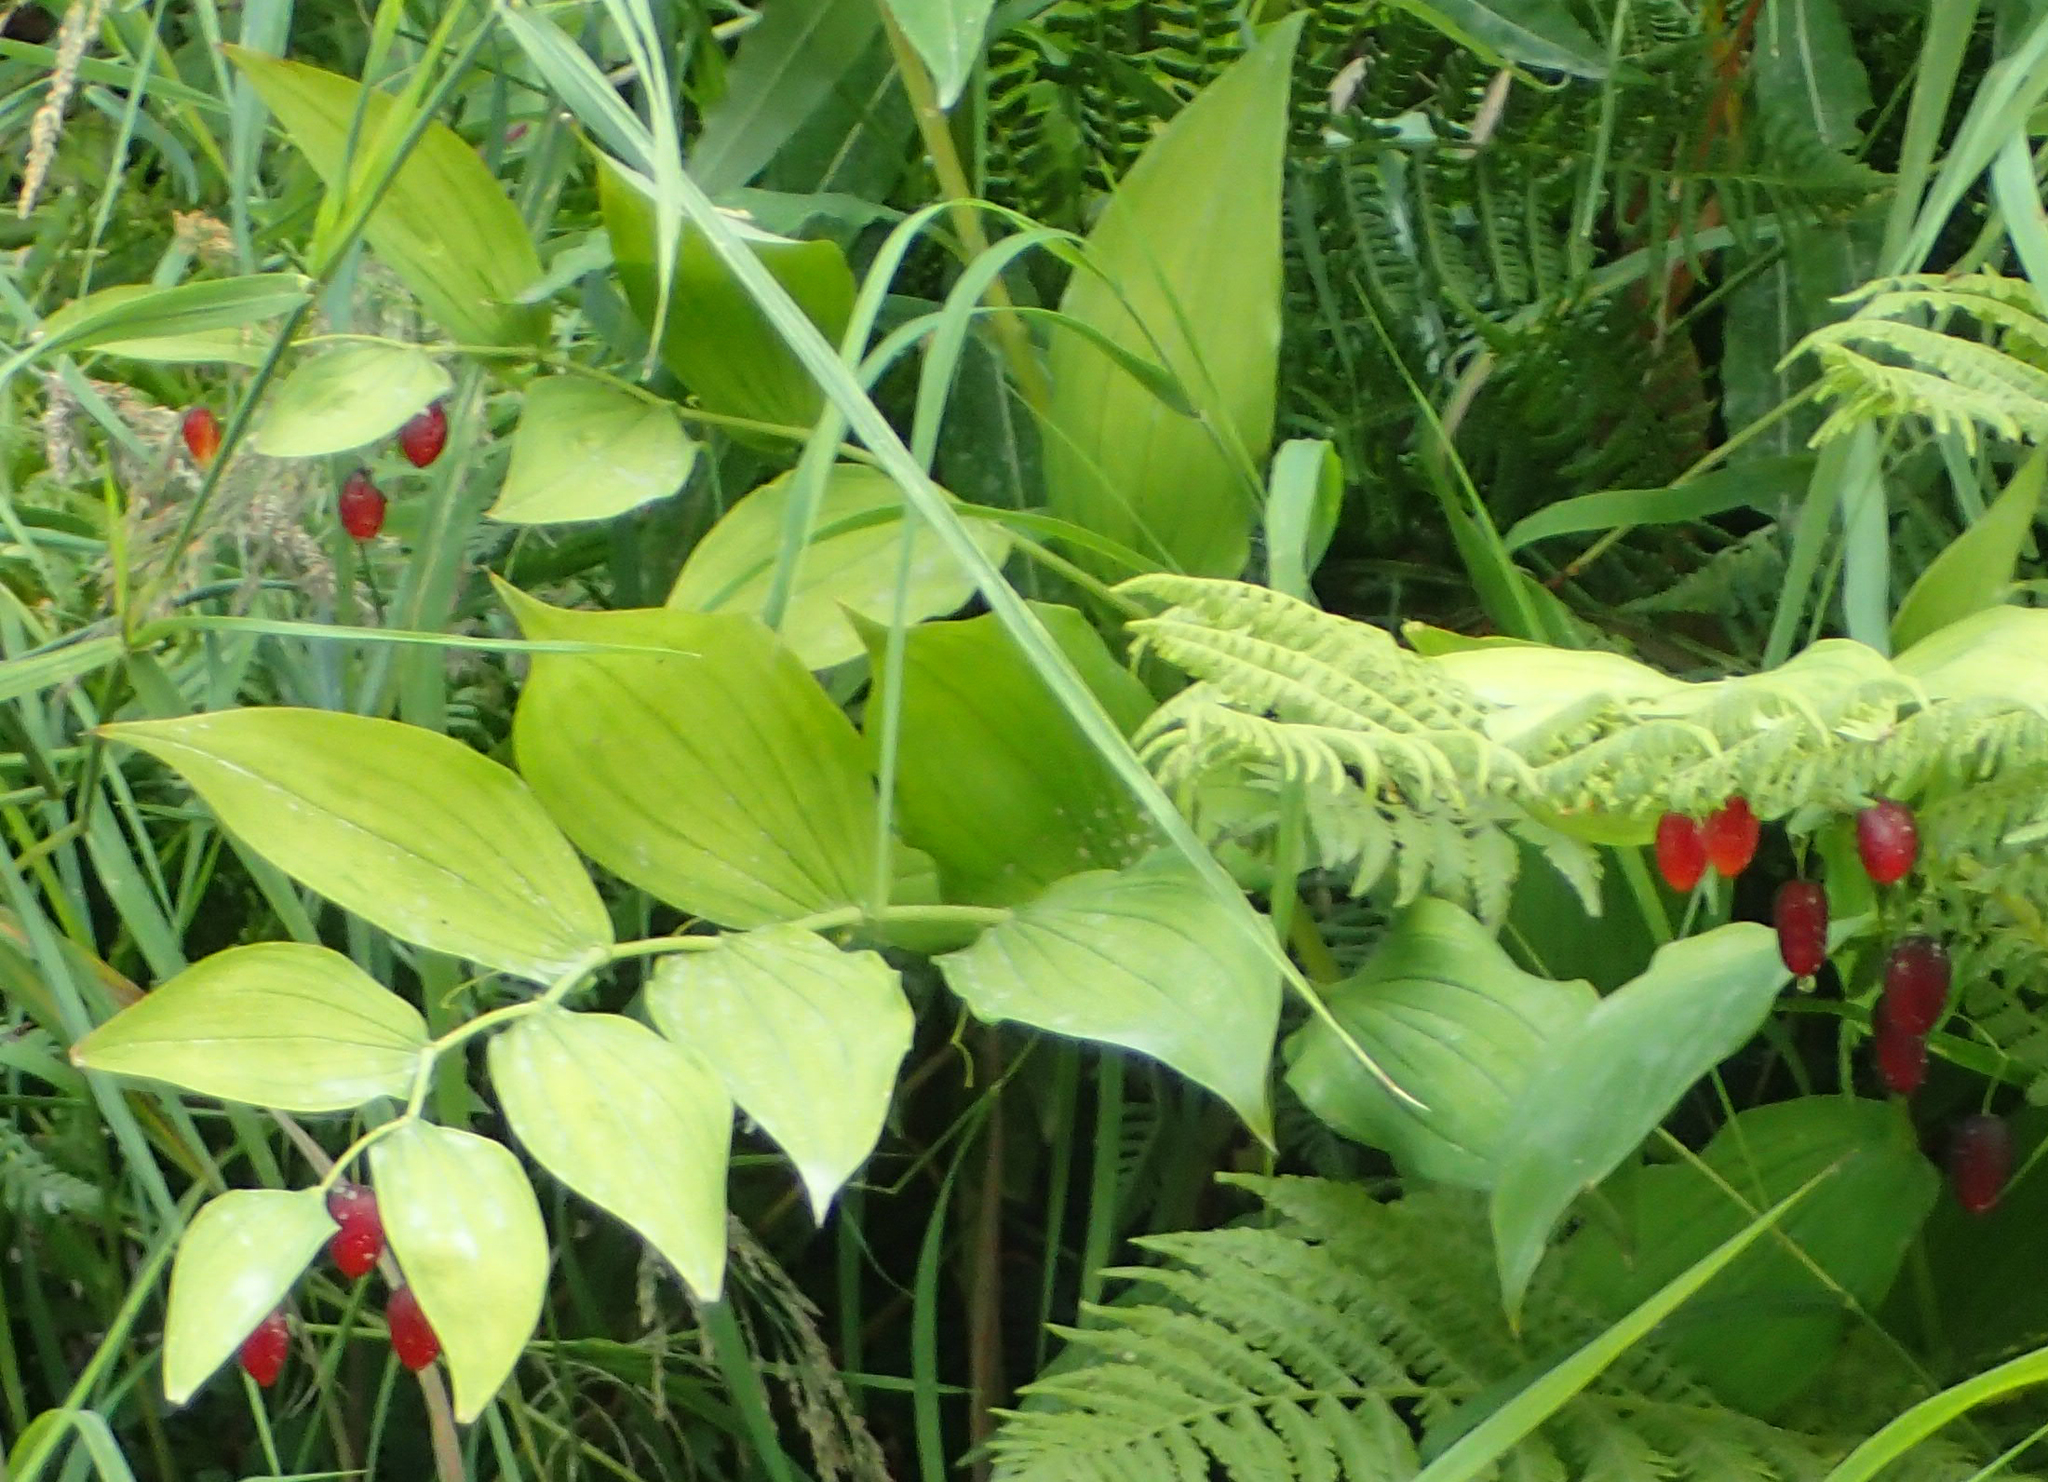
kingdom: Plantae
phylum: Tracheophyta
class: Liliopsida
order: Liliales
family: Liliaceae
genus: Streptopus
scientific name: Streptopus amplexifolius
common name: Clasp twisted stalk
